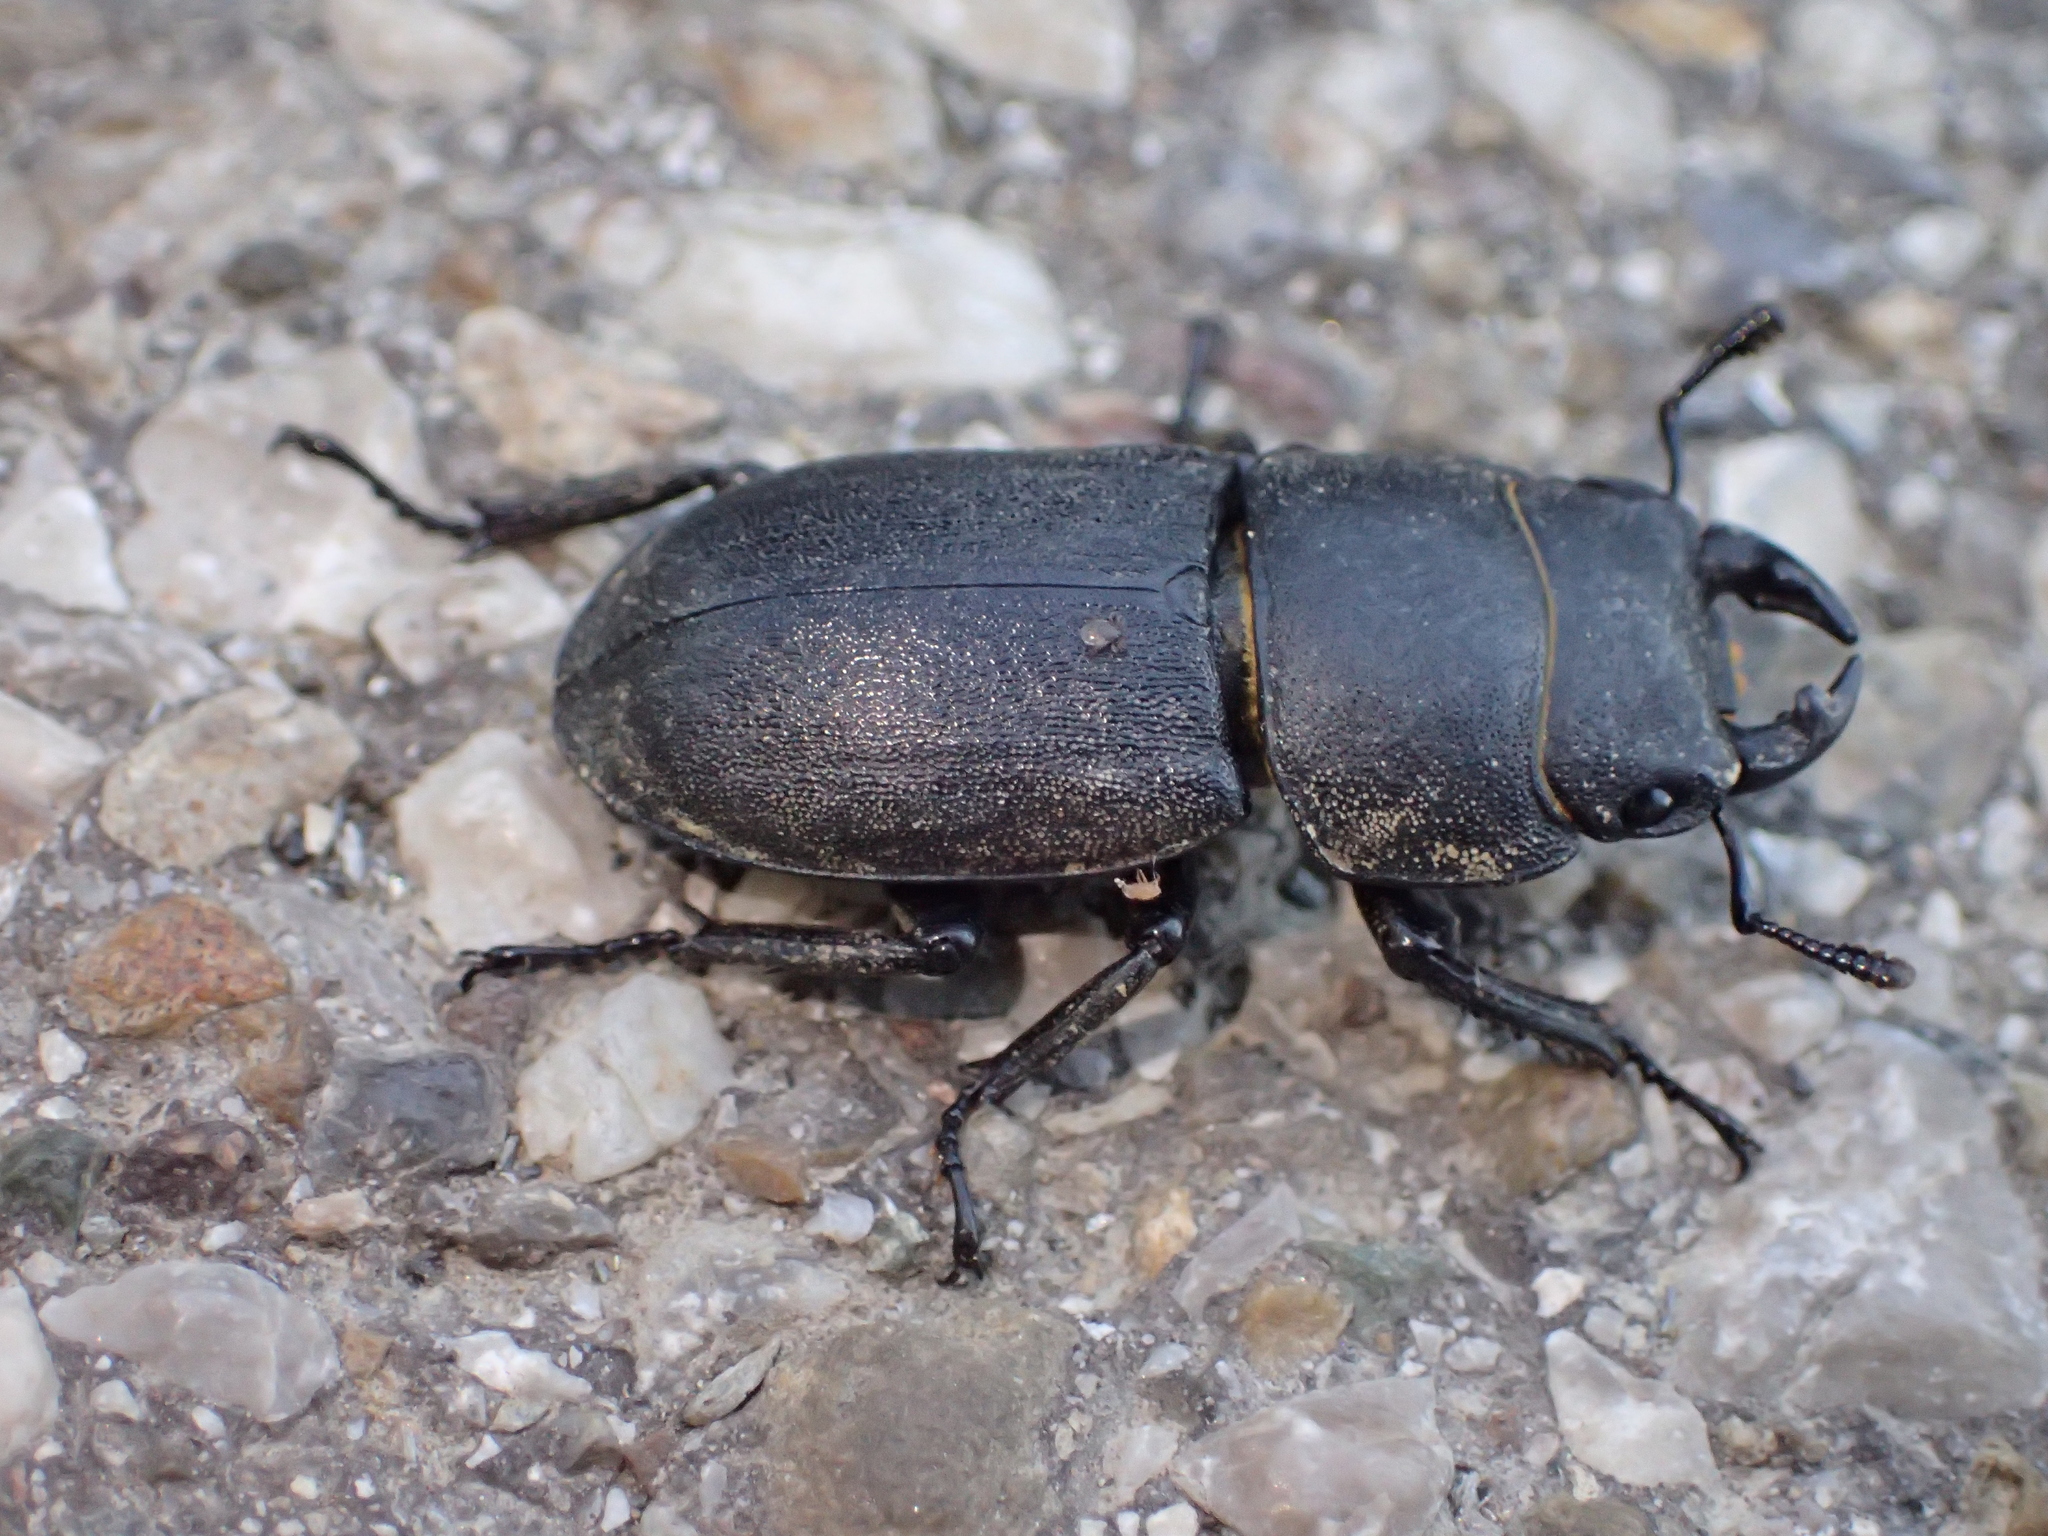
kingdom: Animalia
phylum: Arthropoda
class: Insecta
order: Coleoptera
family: Lucanidae
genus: Dorcus
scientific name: Dorcus parallelipipedus
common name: Lesser stag beetle
